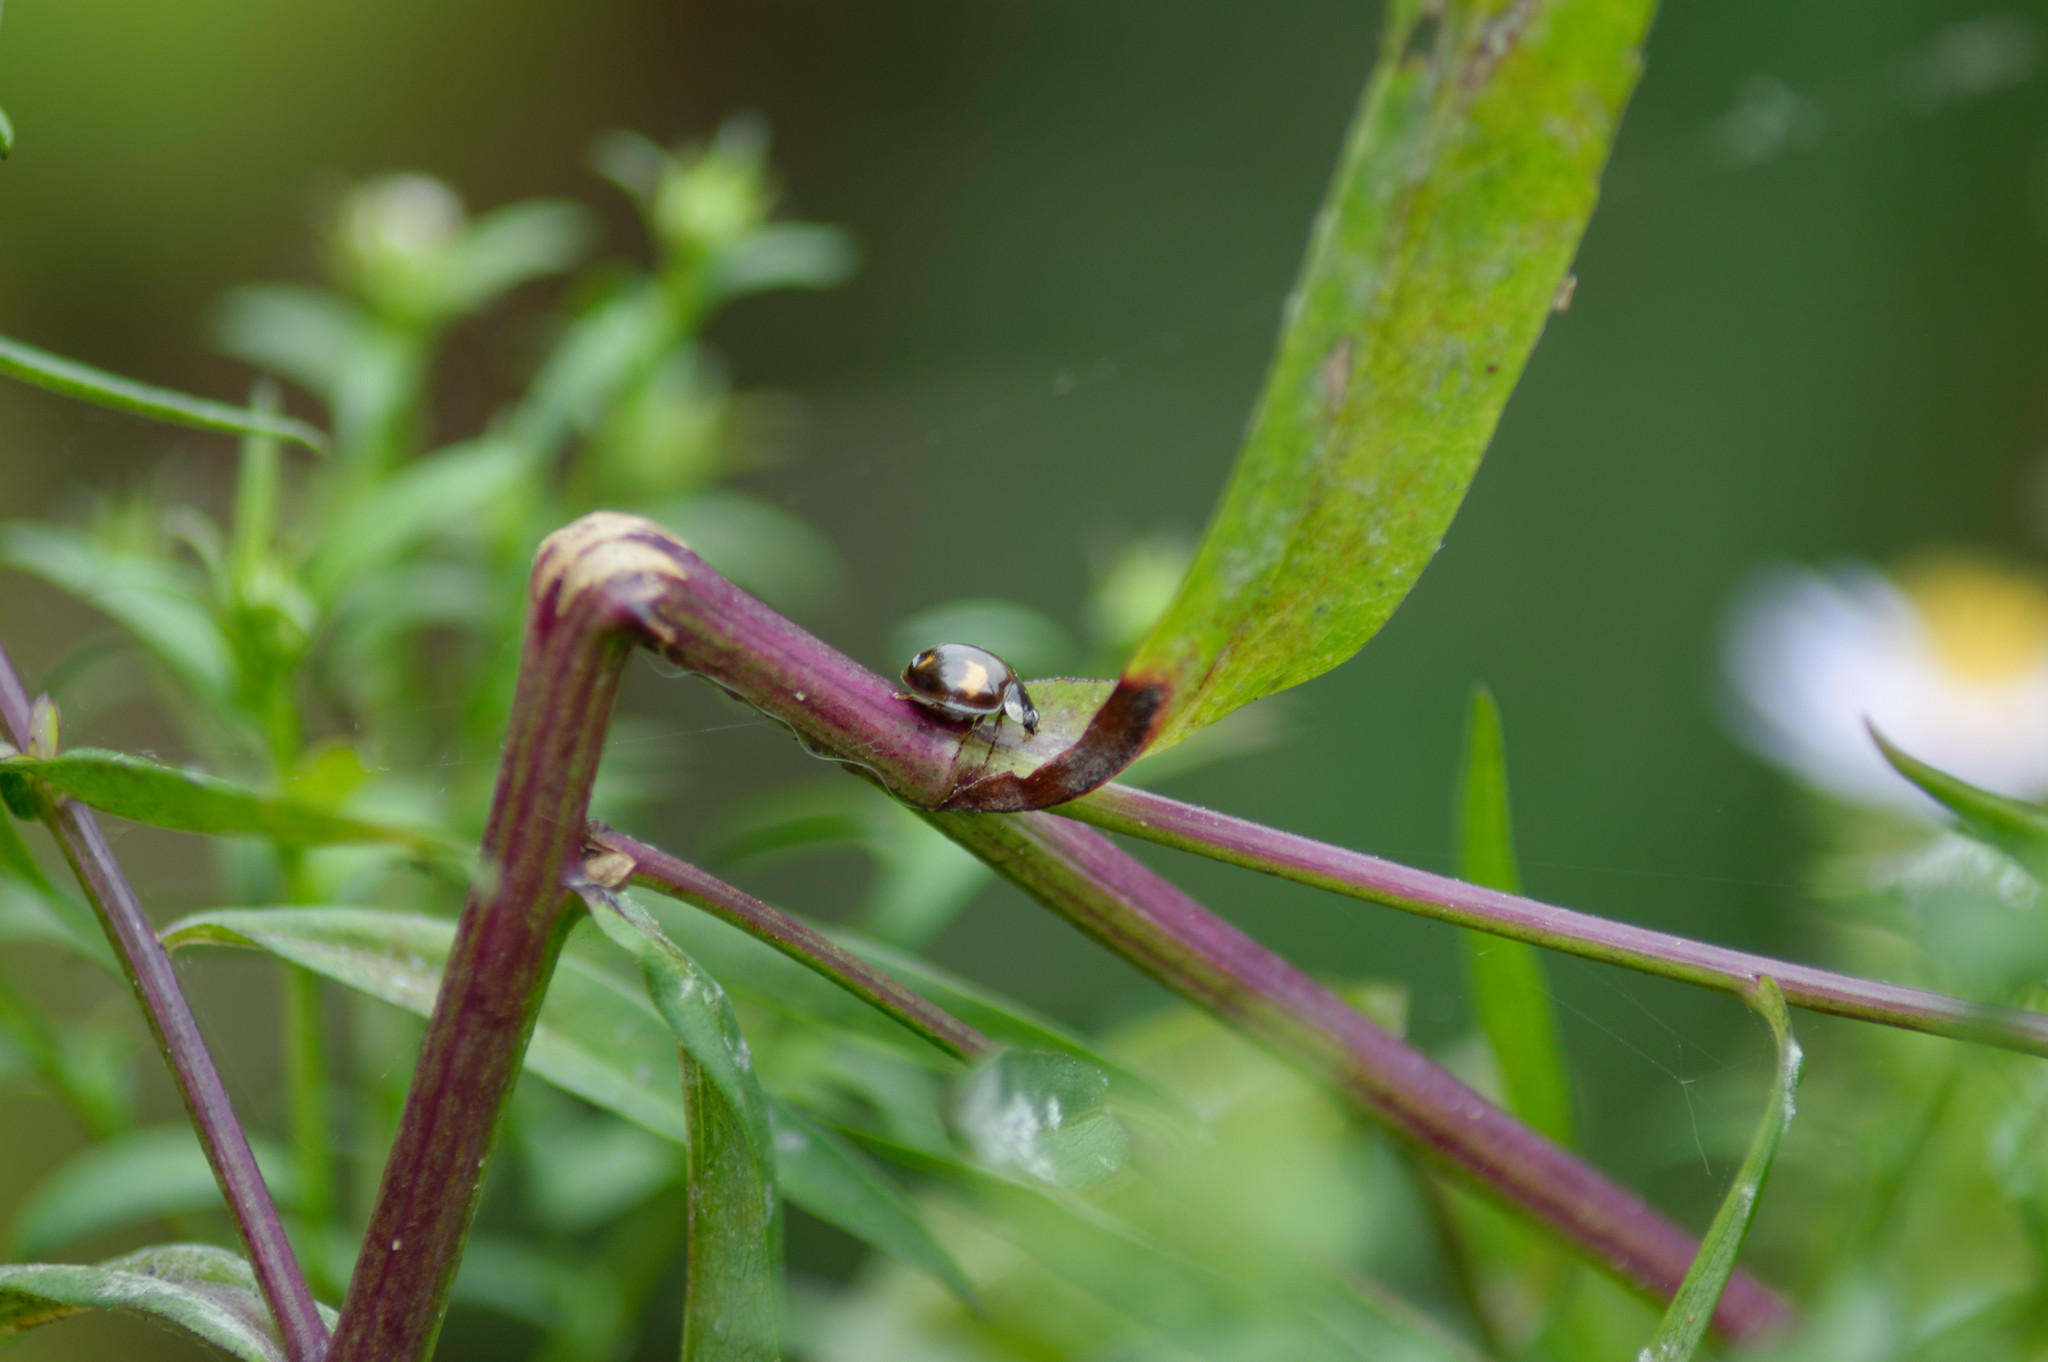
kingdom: Animalia
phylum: Arthropoda
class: Insecta
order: Coleoptera
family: Coccinellidae
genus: Harmonia
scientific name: Harmonia axyridis
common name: Harlequin ladybird
